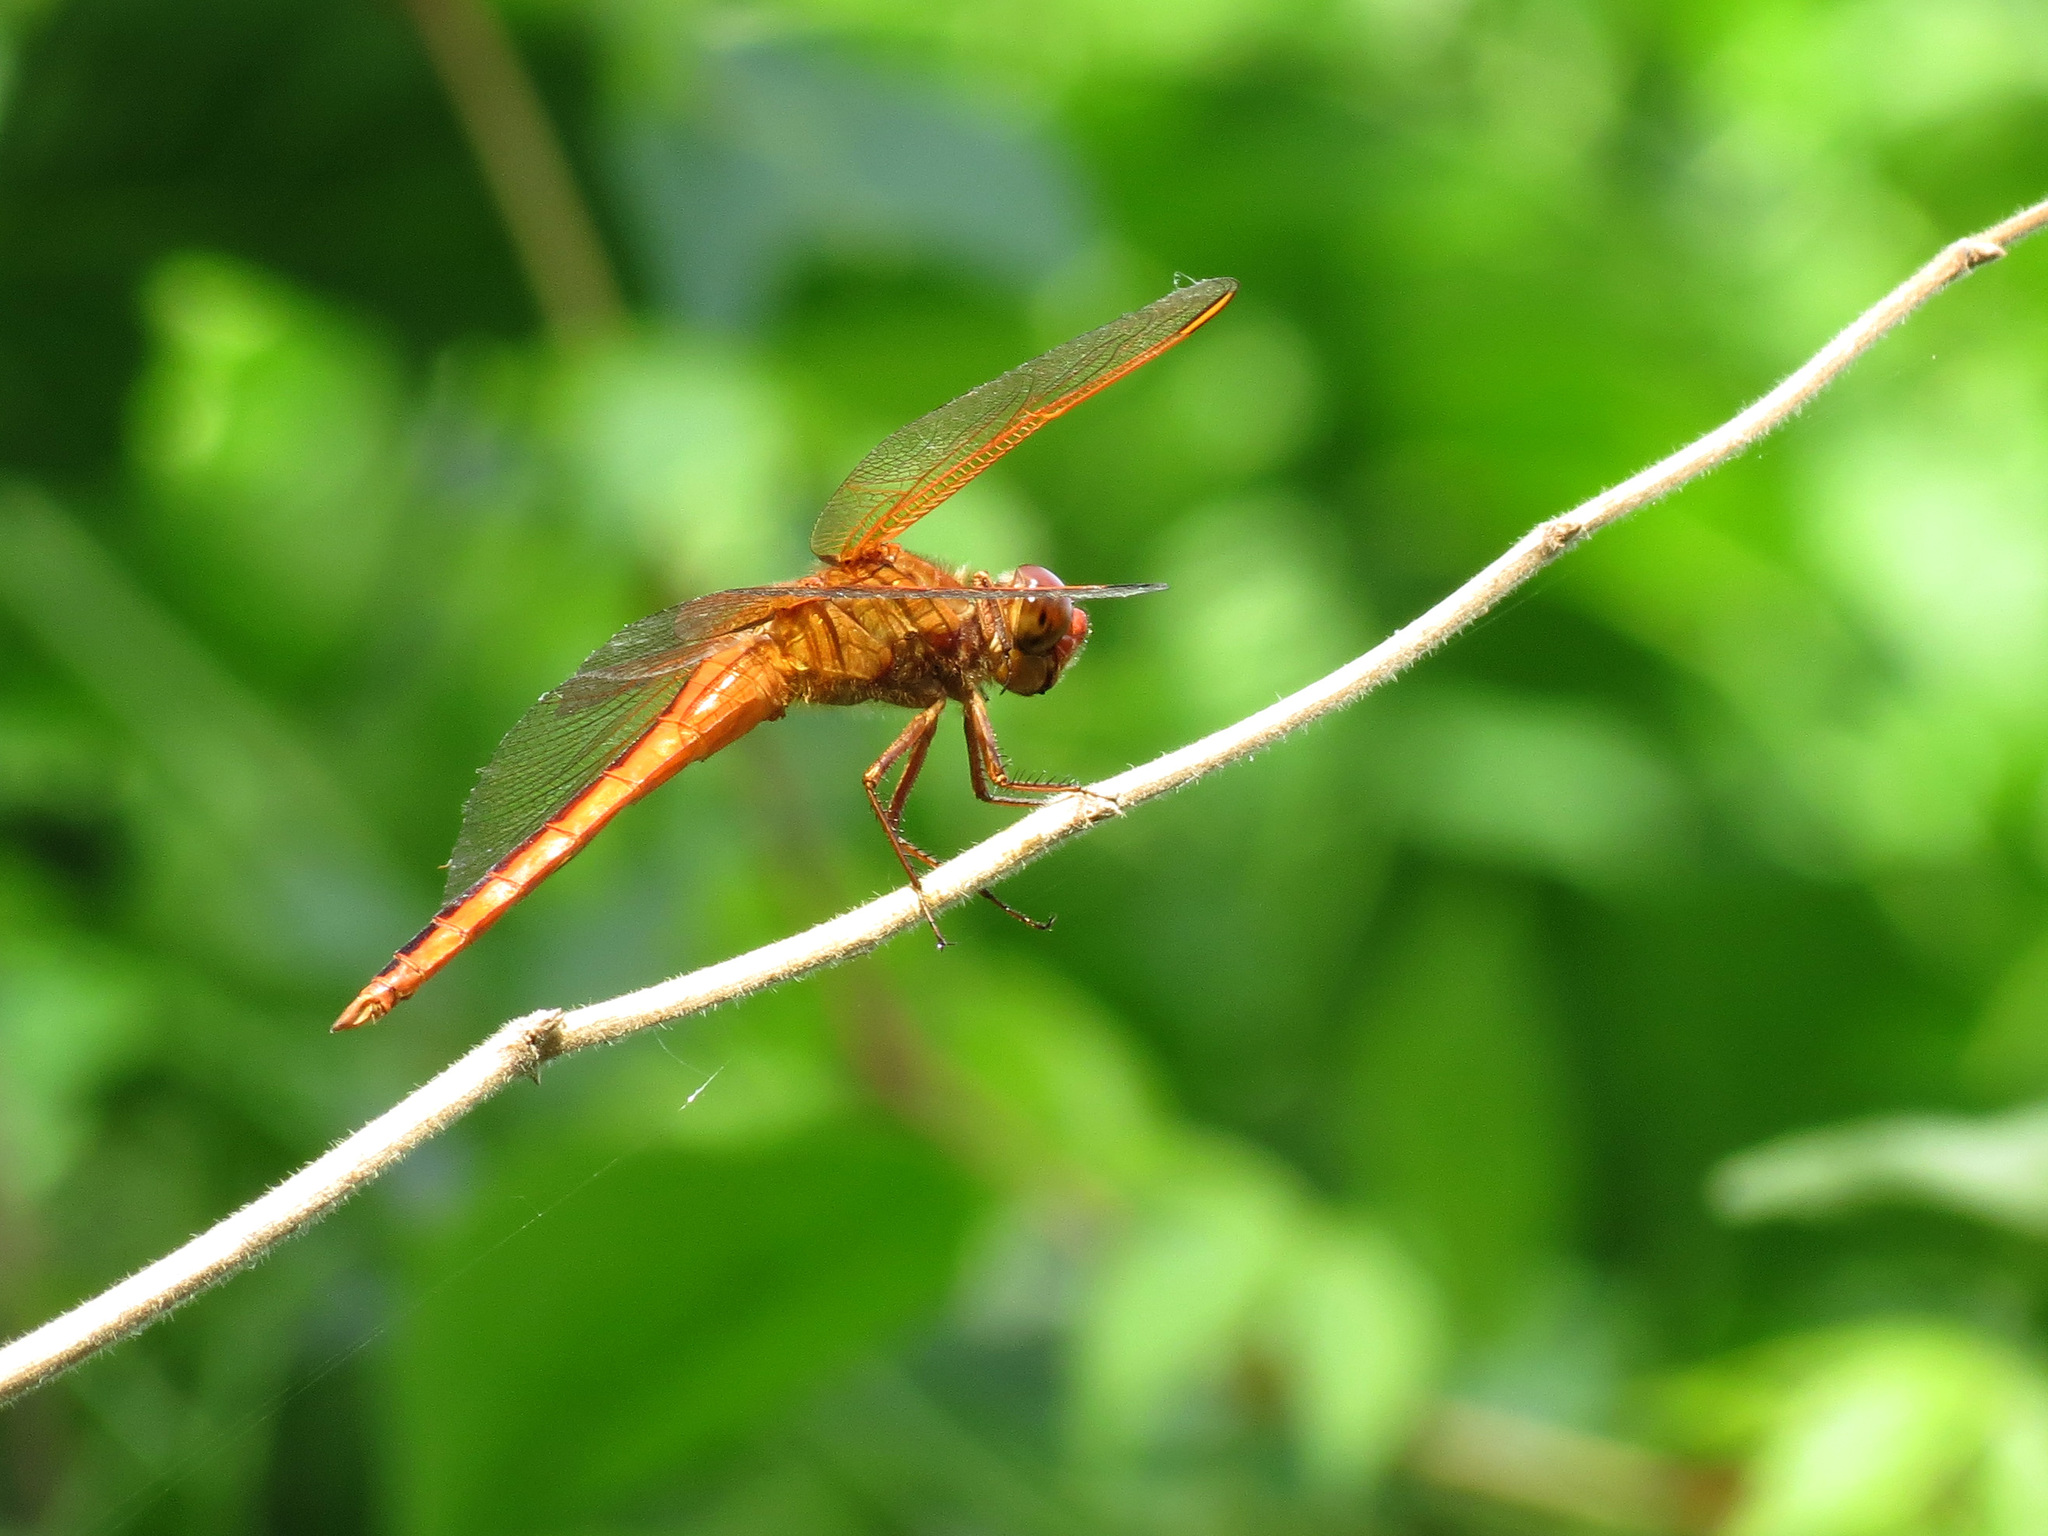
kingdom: Animalia
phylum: Arthropoda
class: Insecta
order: Odonata
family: Libellulidae
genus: Libellula
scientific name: Libellula needhami
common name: Needham's skimmer
